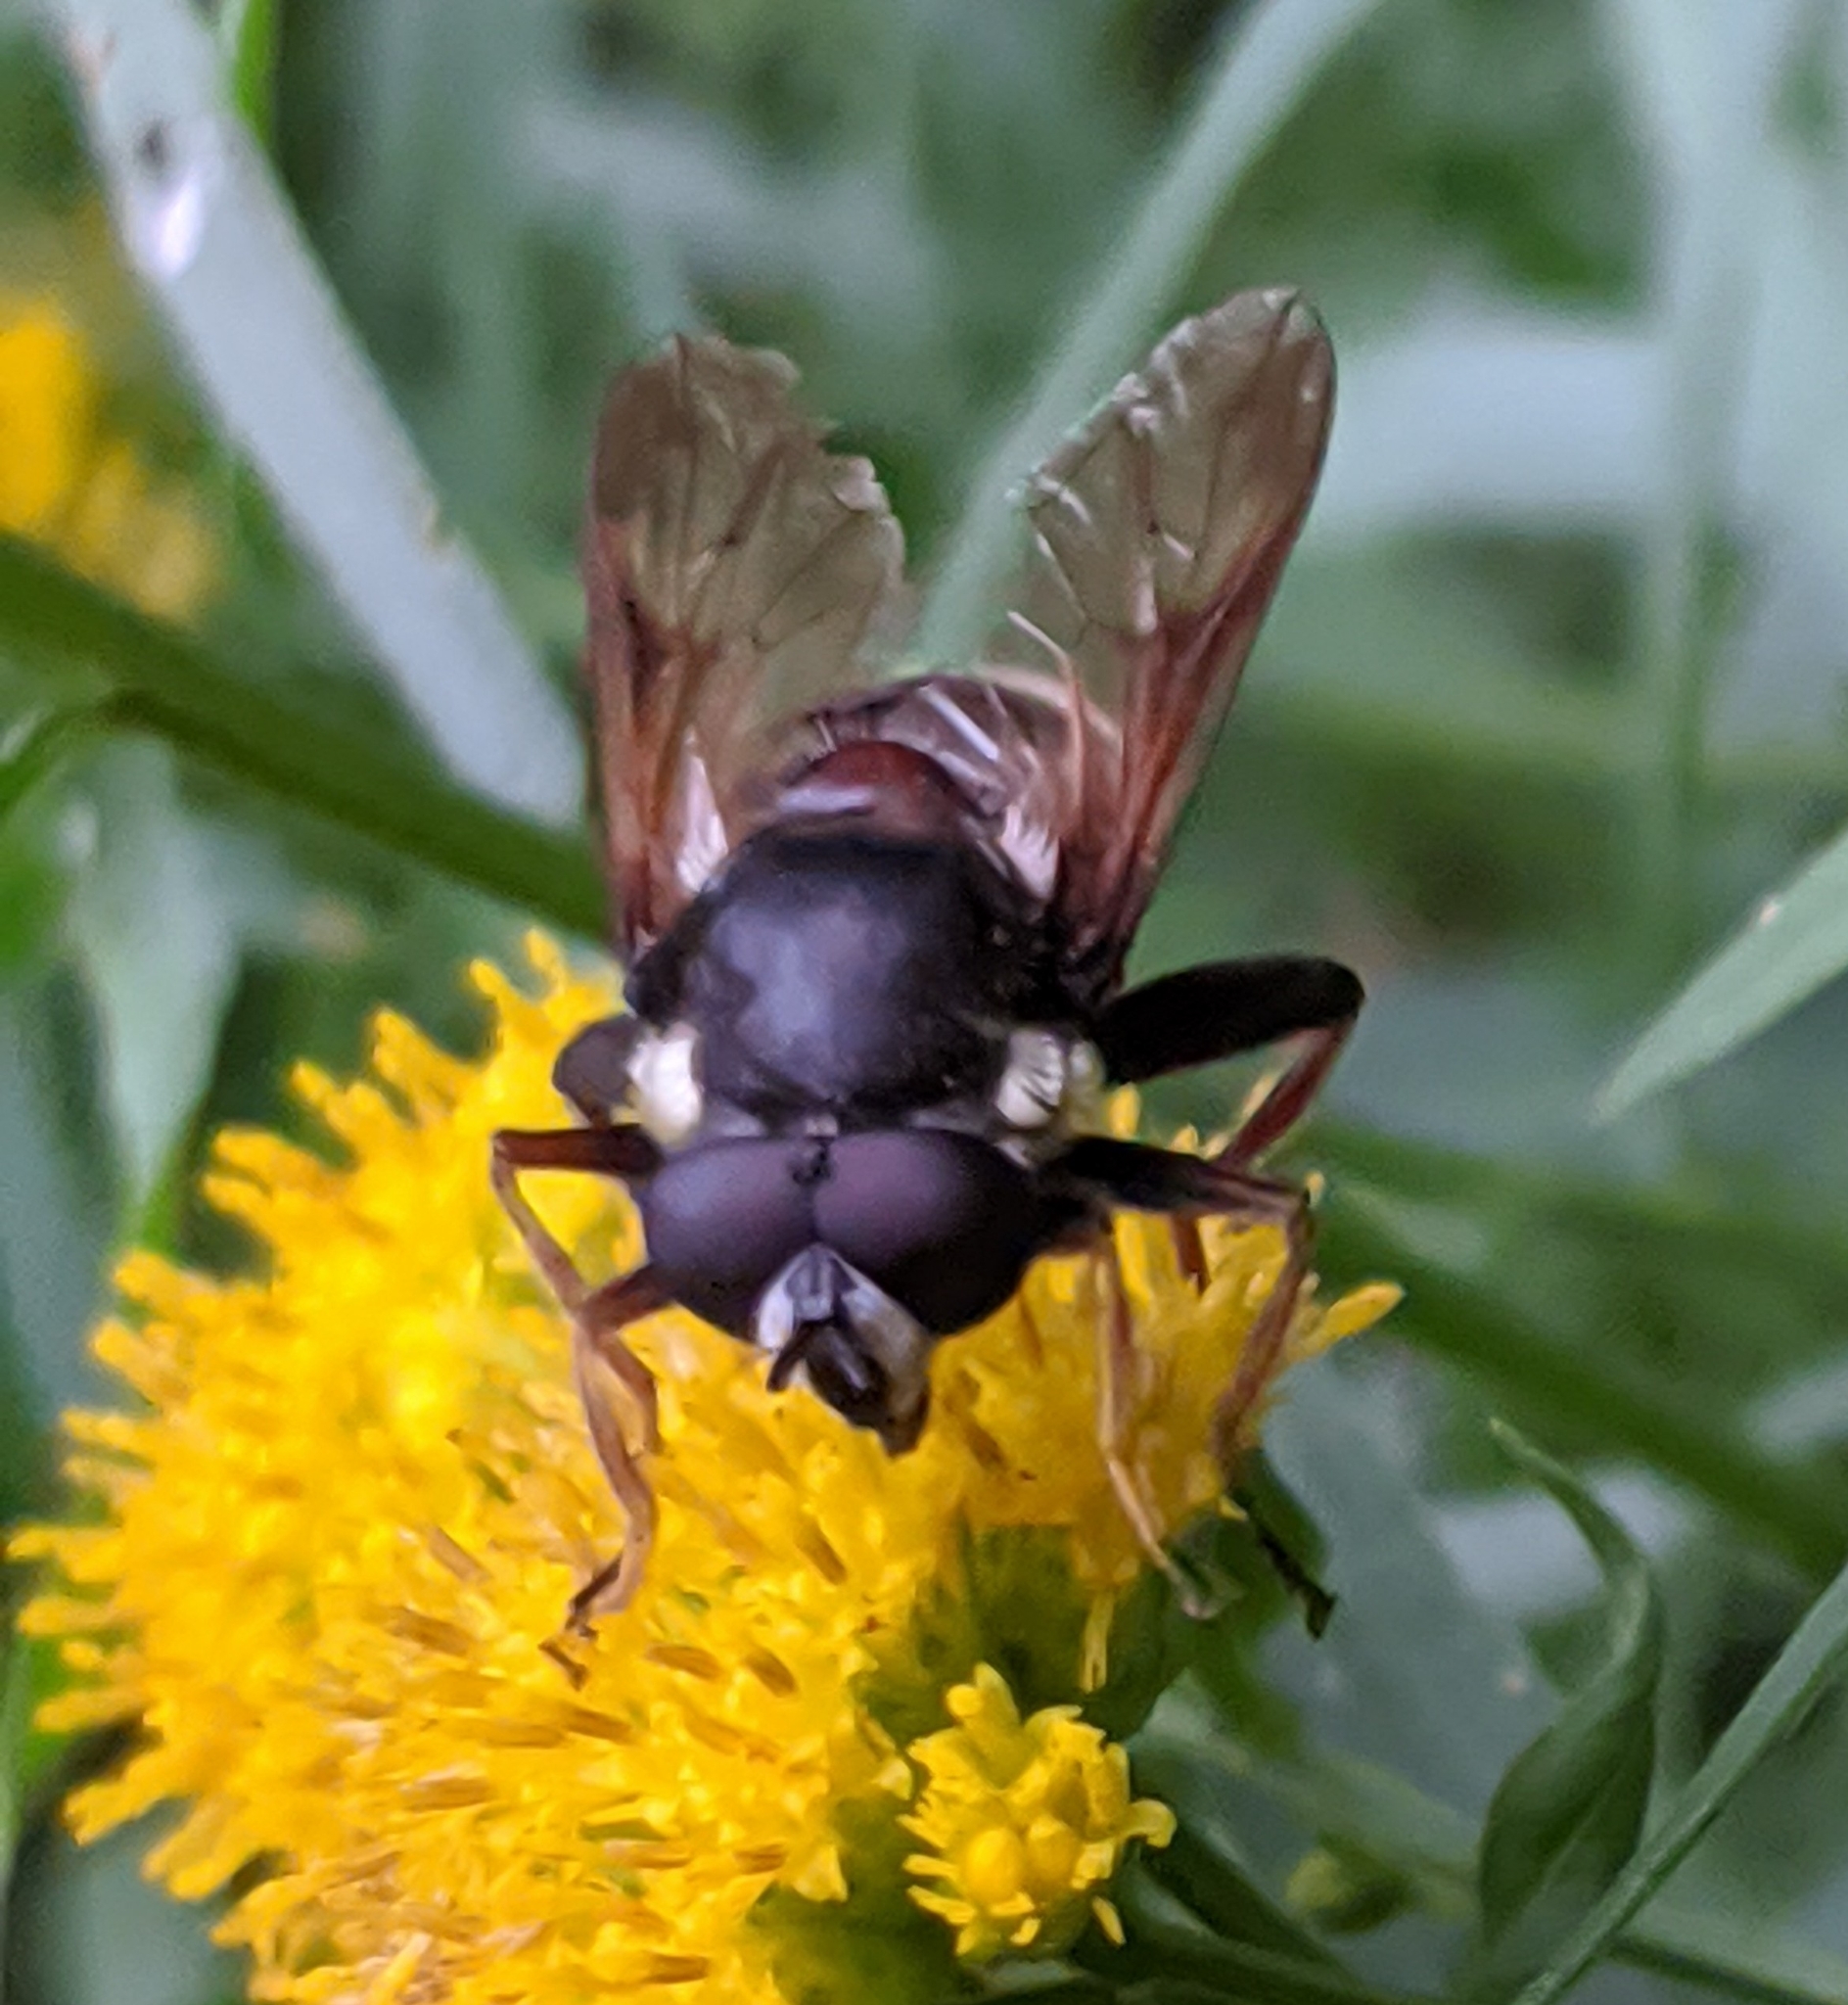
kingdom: Animalia
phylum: Arthropoda
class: Insecta
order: Diptera
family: Syrphidae
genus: Sericomyia
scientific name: Sericomyia militaris
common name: Narrow-banded pond fly
